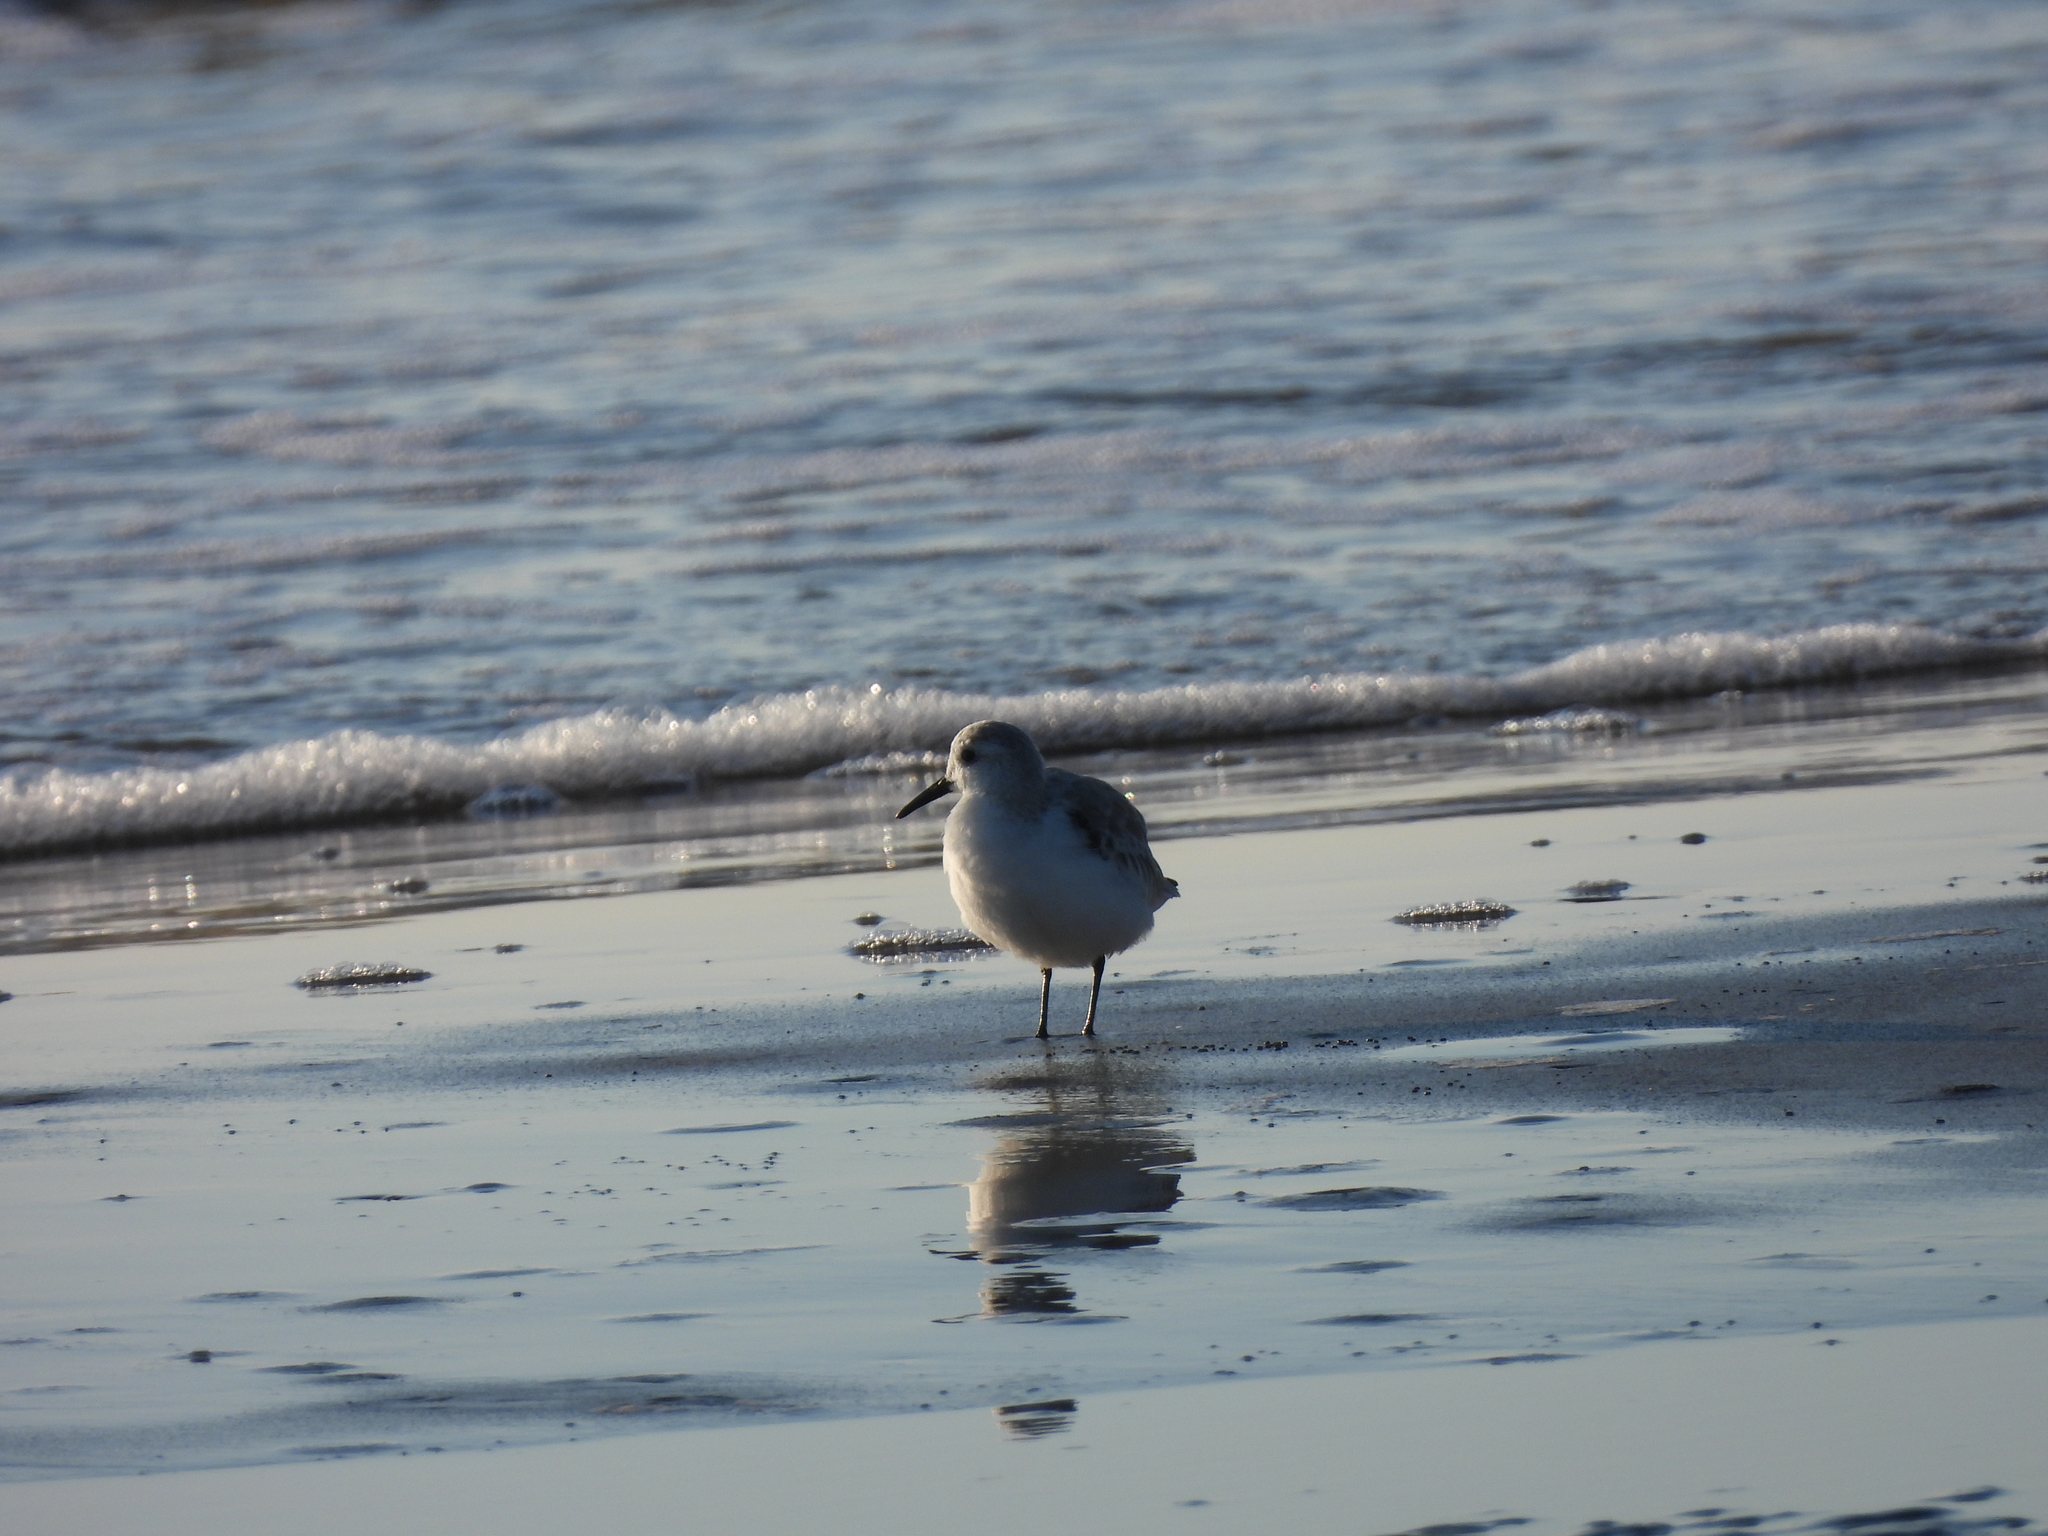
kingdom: Animalia
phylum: Chordata
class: Aves
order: Charadriiformes
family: Scolopacidae
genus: Calidris
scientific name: Calidris alba
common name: Sanderling
